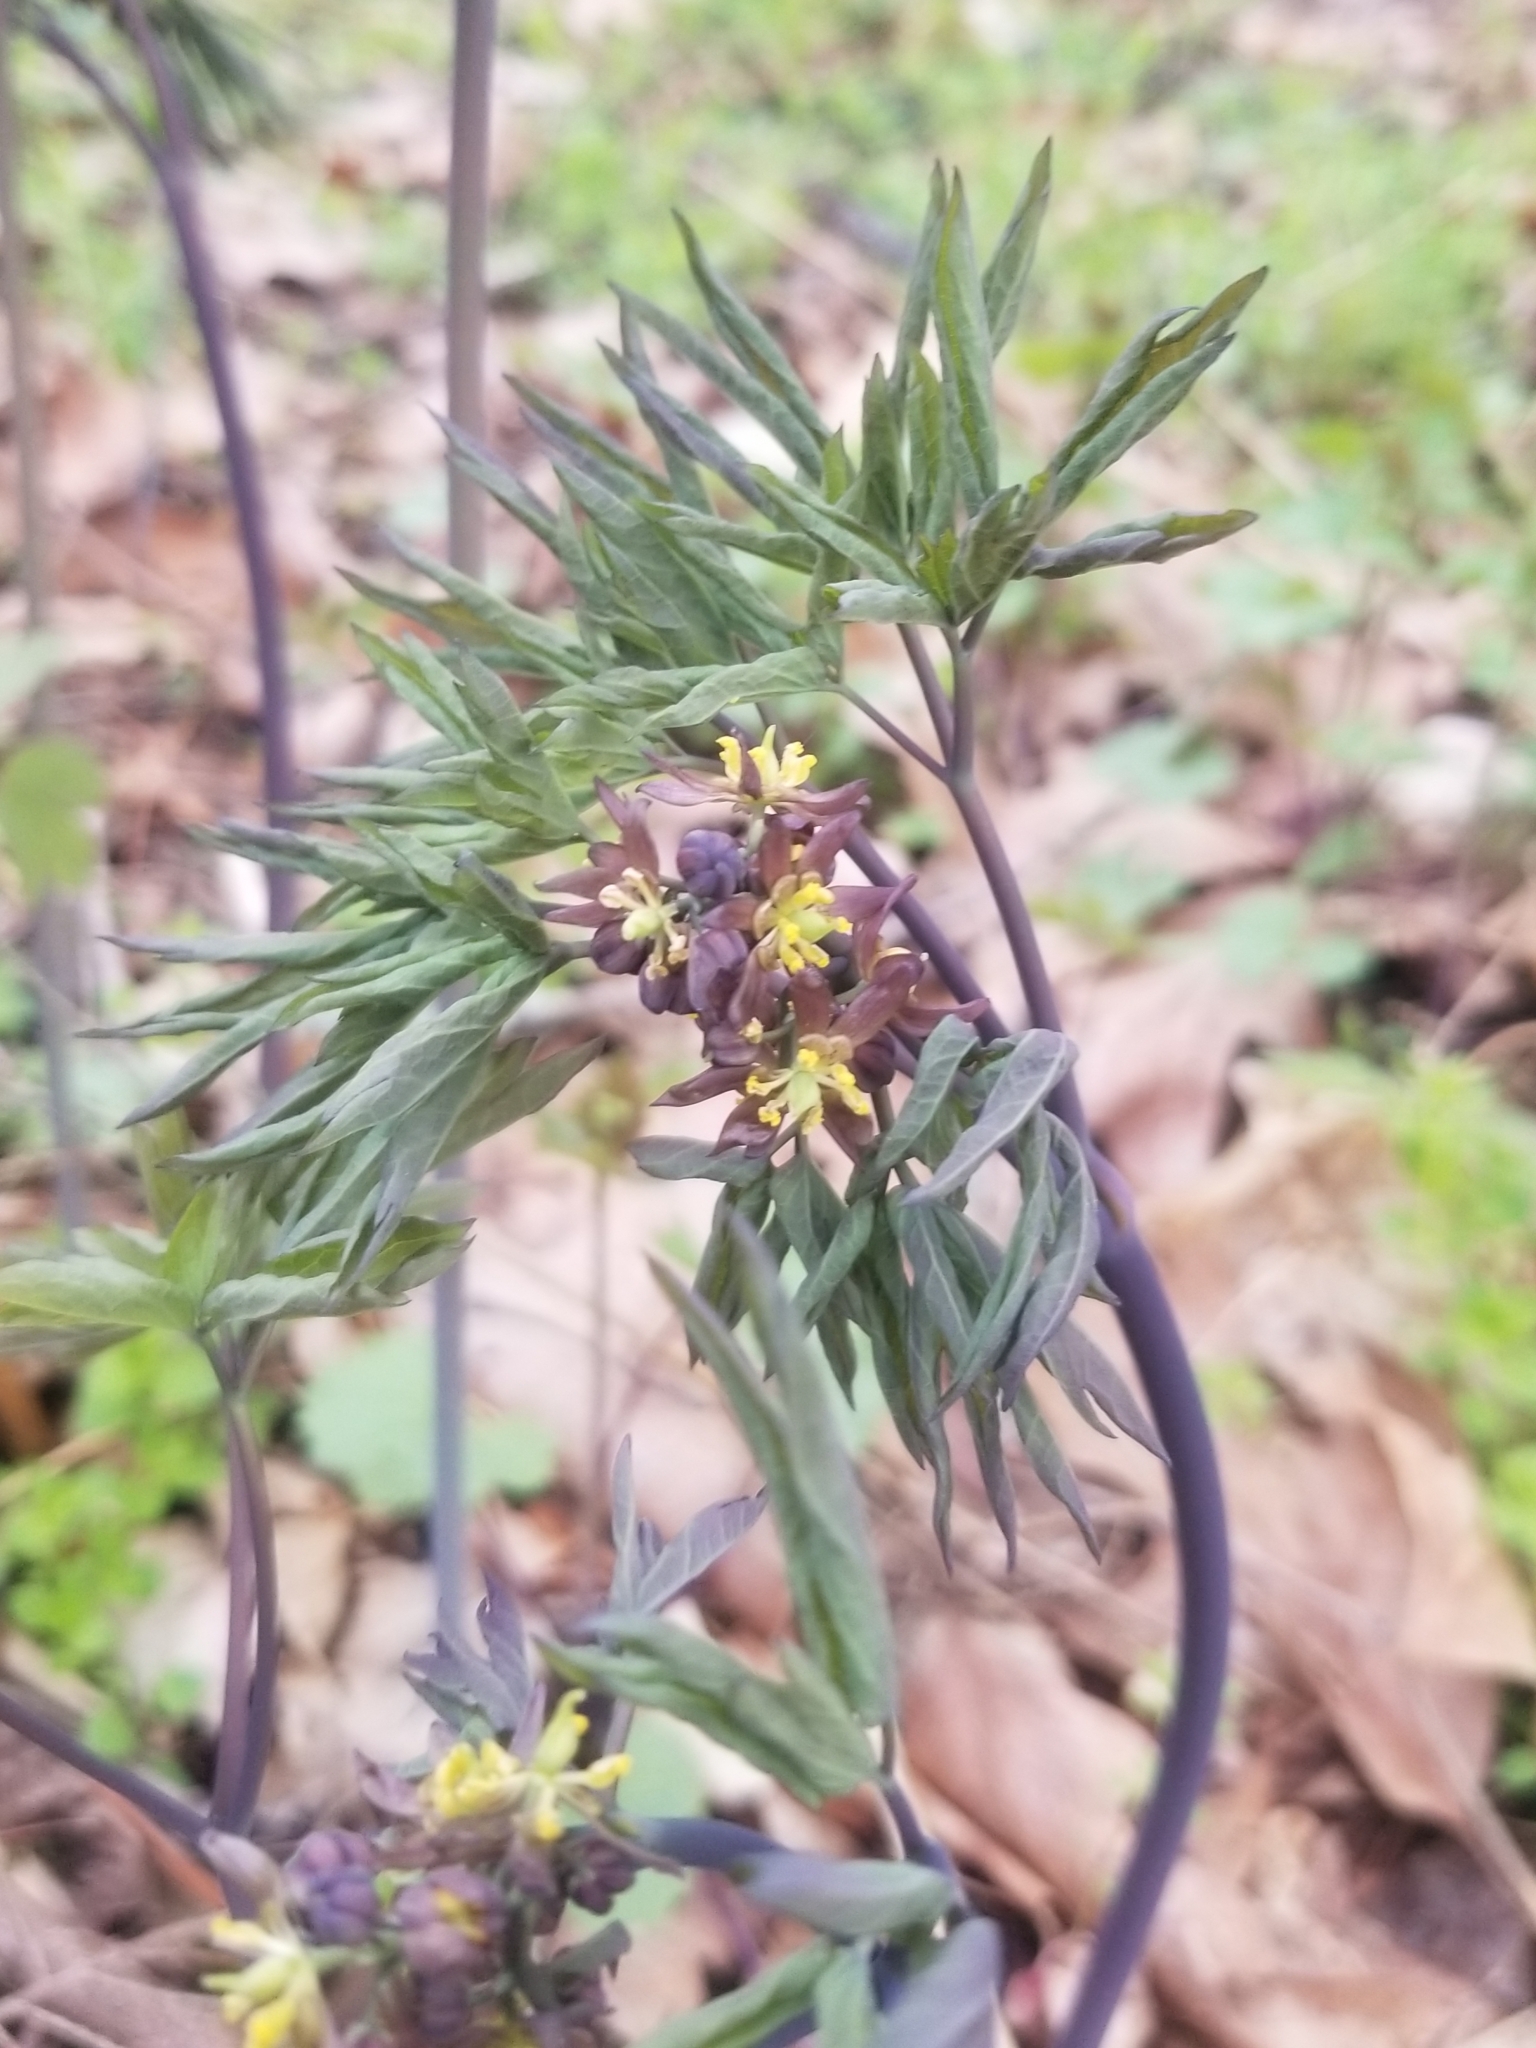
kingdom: Plantae
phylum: Tracheophyta
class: Magnoliopsida
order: Ranunculales
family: Berberidaceae
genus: Caulophyllum
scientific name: Caulophyllum giganteum
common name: Blue cohosh
